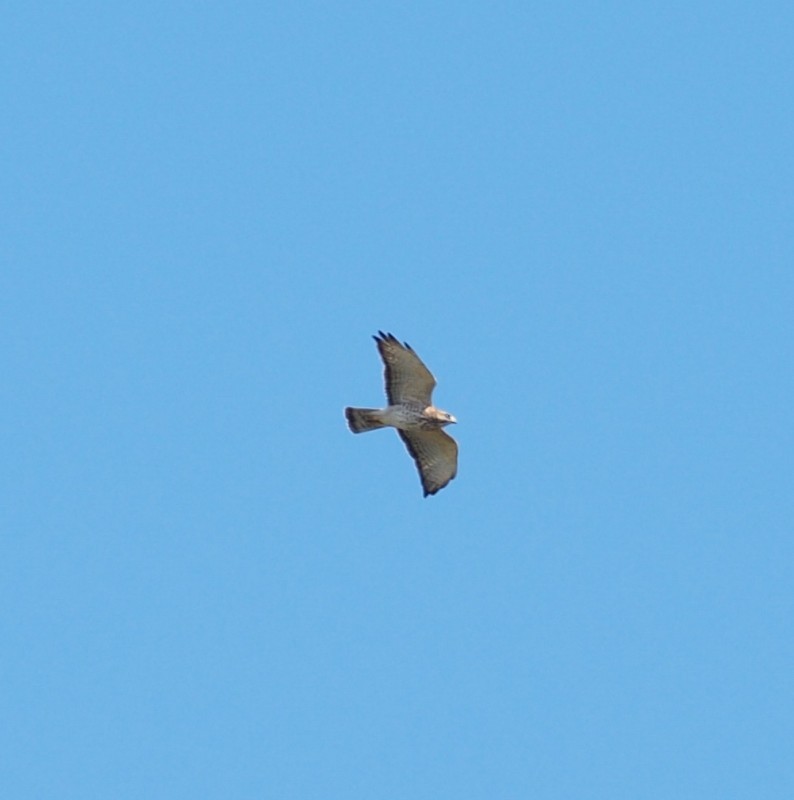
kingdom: Animalia
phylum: Chordata
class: Aves
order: Accipitriformes
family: Accipitridae
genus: Buteo
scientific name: Buteo platypterus
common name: Broad-winged hawk
